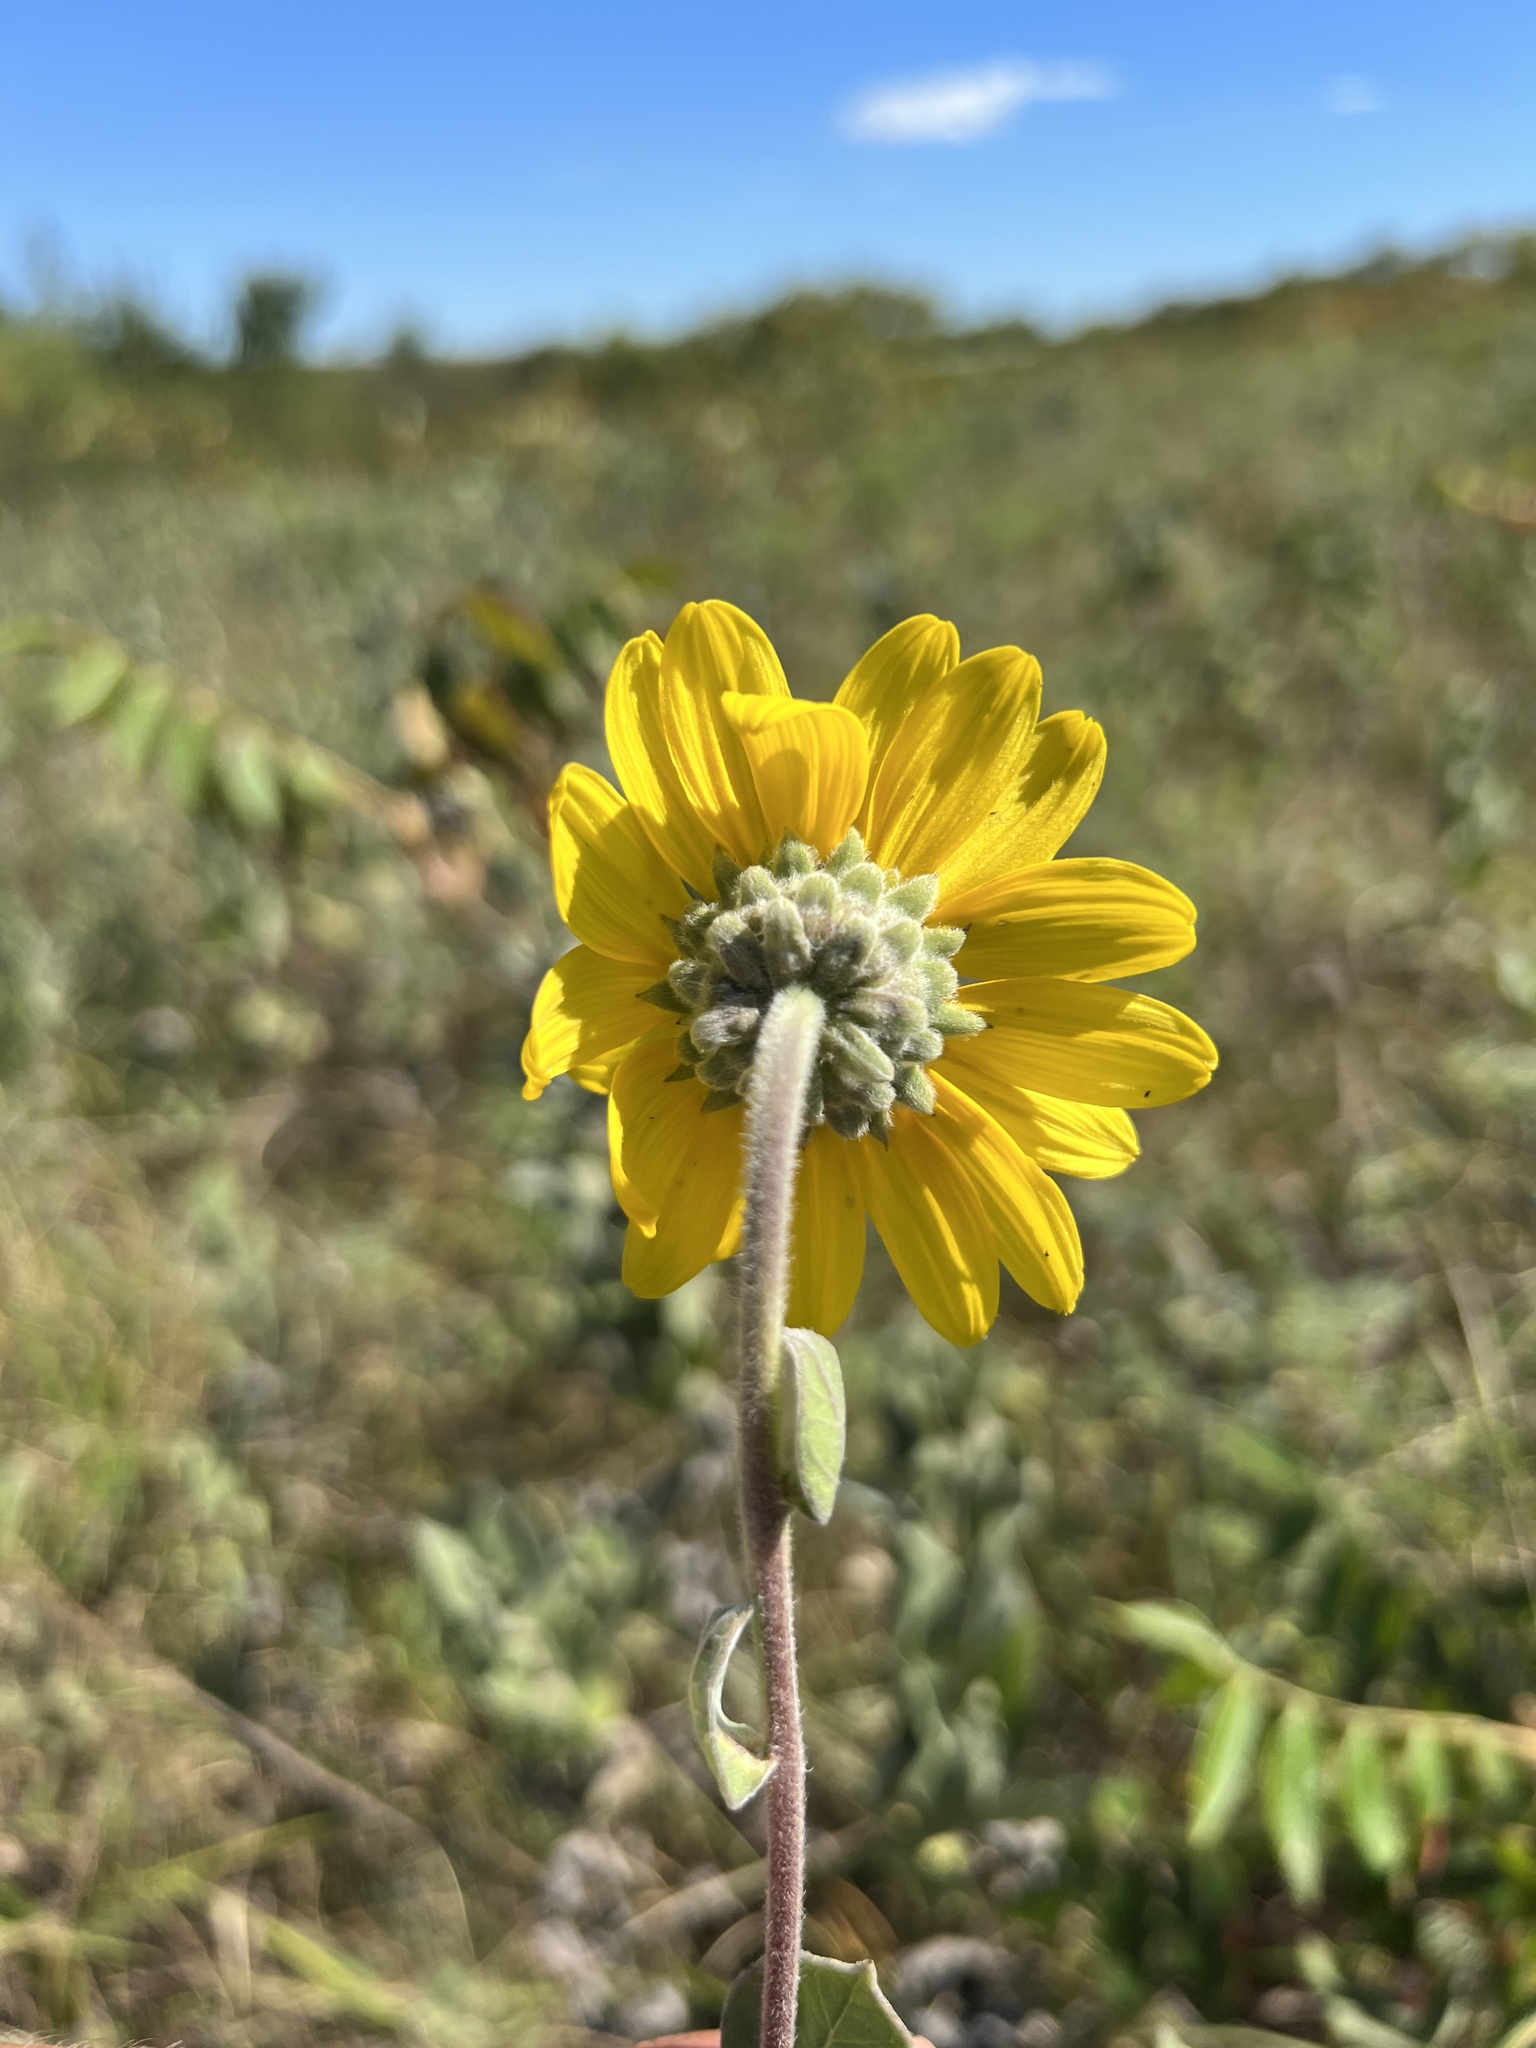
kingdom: Plantae
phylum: Tracheophyta
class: Magnoliopsida
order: Asterales
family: Asteraceae
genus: Helianthus
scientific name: Helianthus mollis
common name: Ashy sunflower
